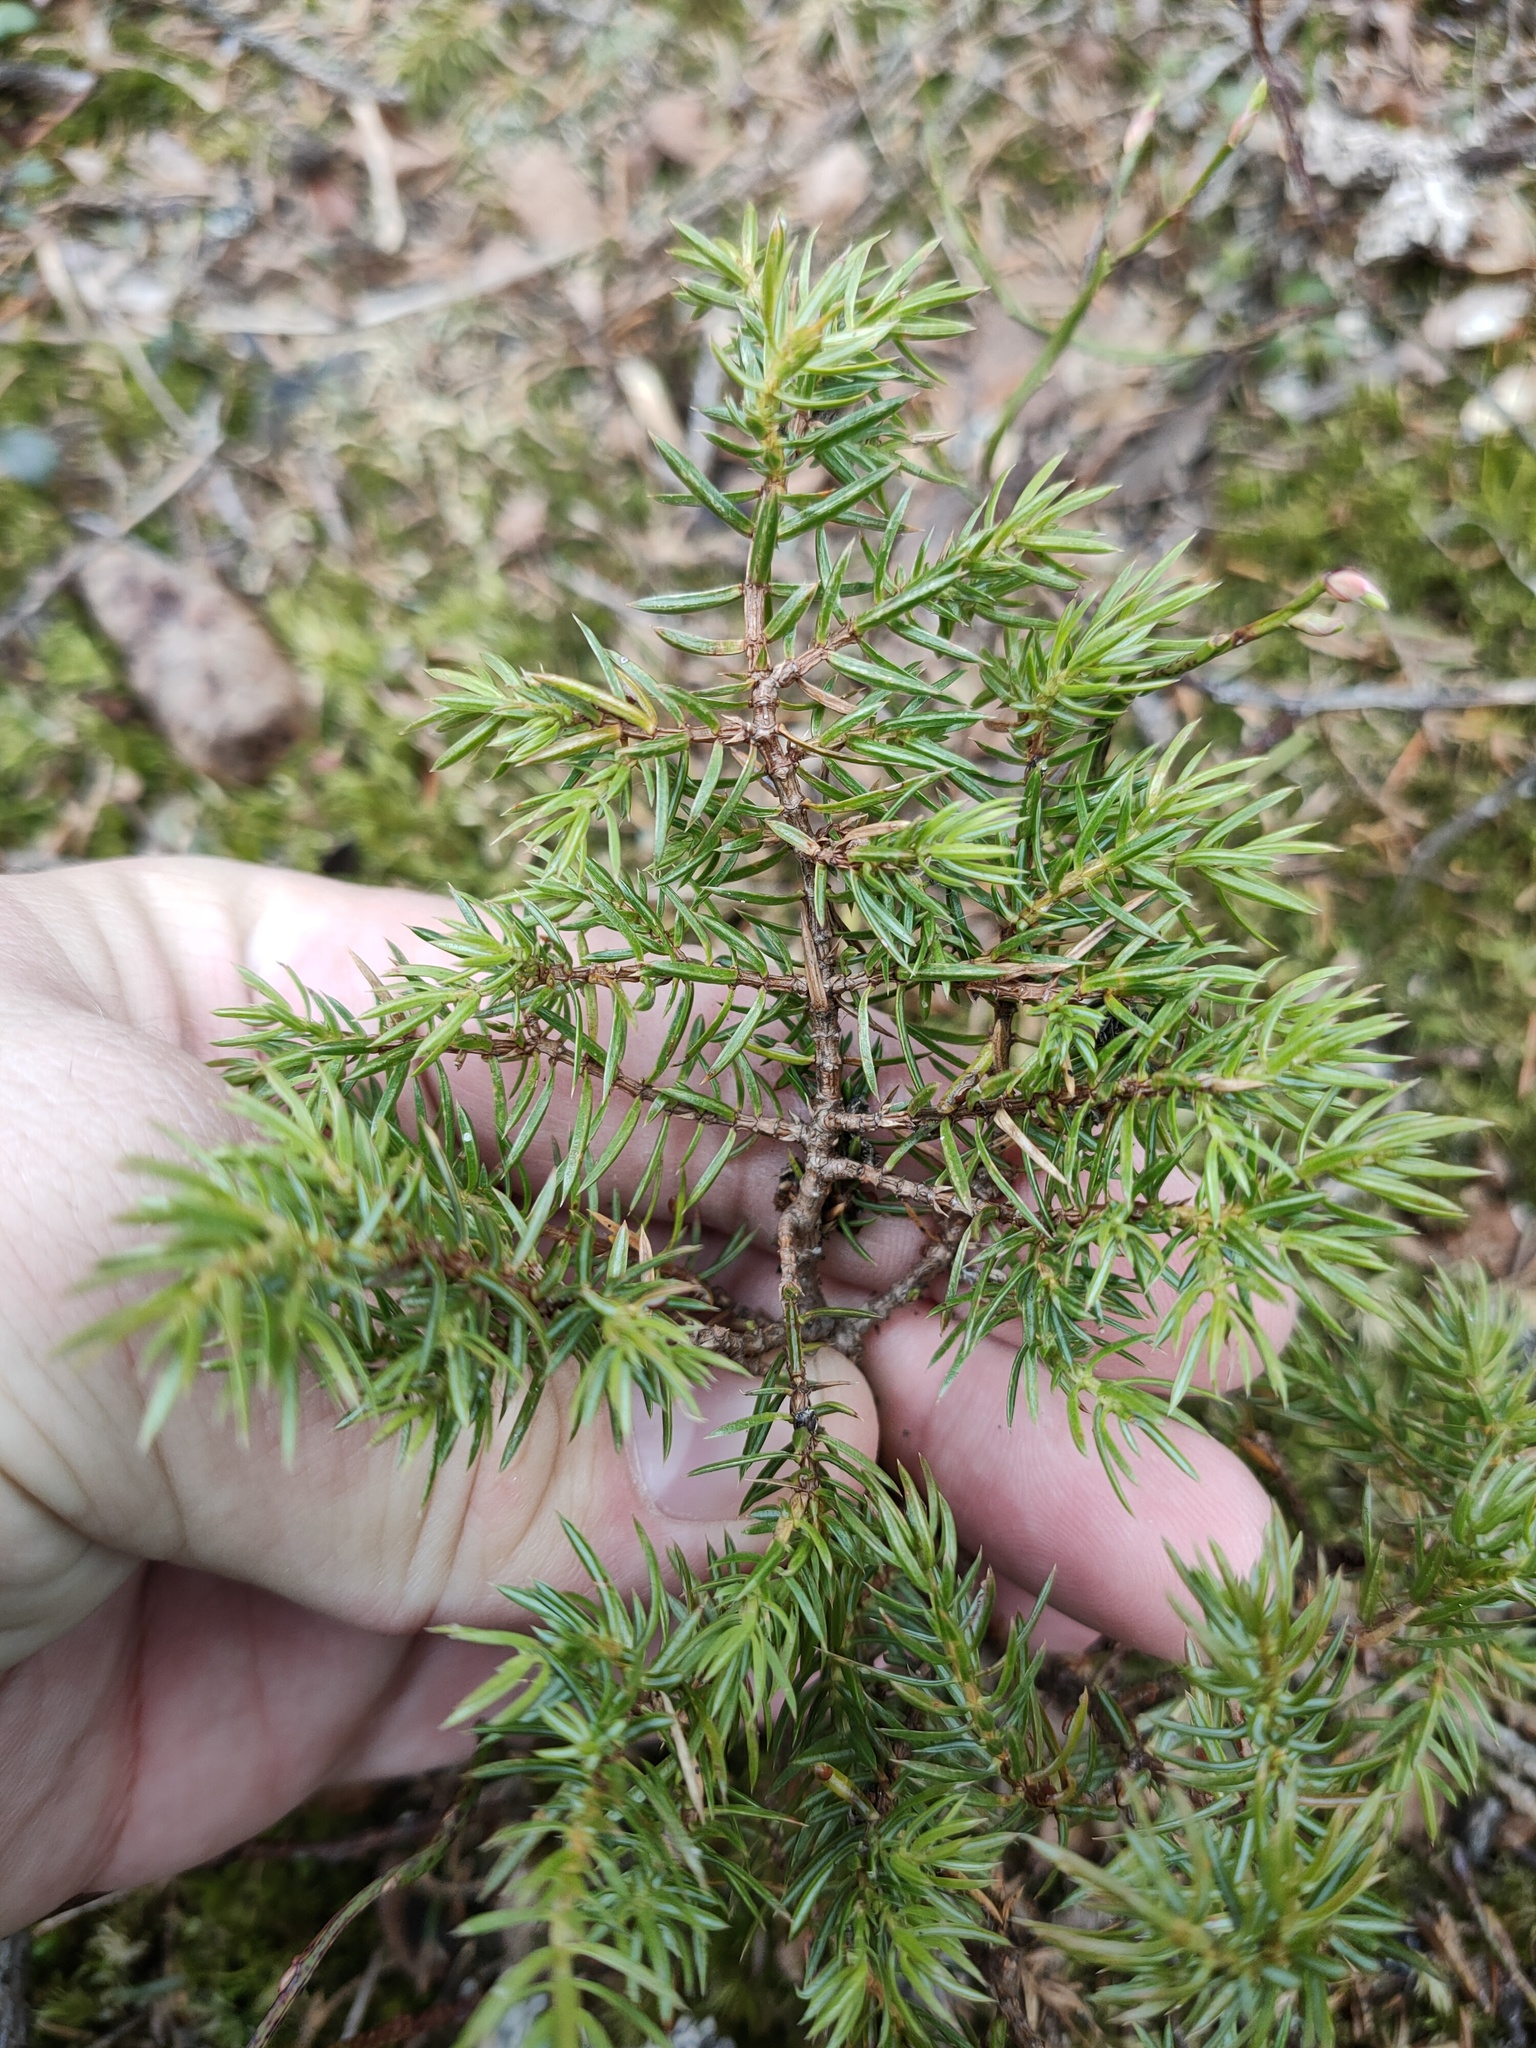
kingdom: Plantae
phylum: Tracheophyta
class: Pinopsida
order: Pinales
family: Cupressaceae
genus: Juniperus
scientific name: Juniperus communis
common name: Common juniper
